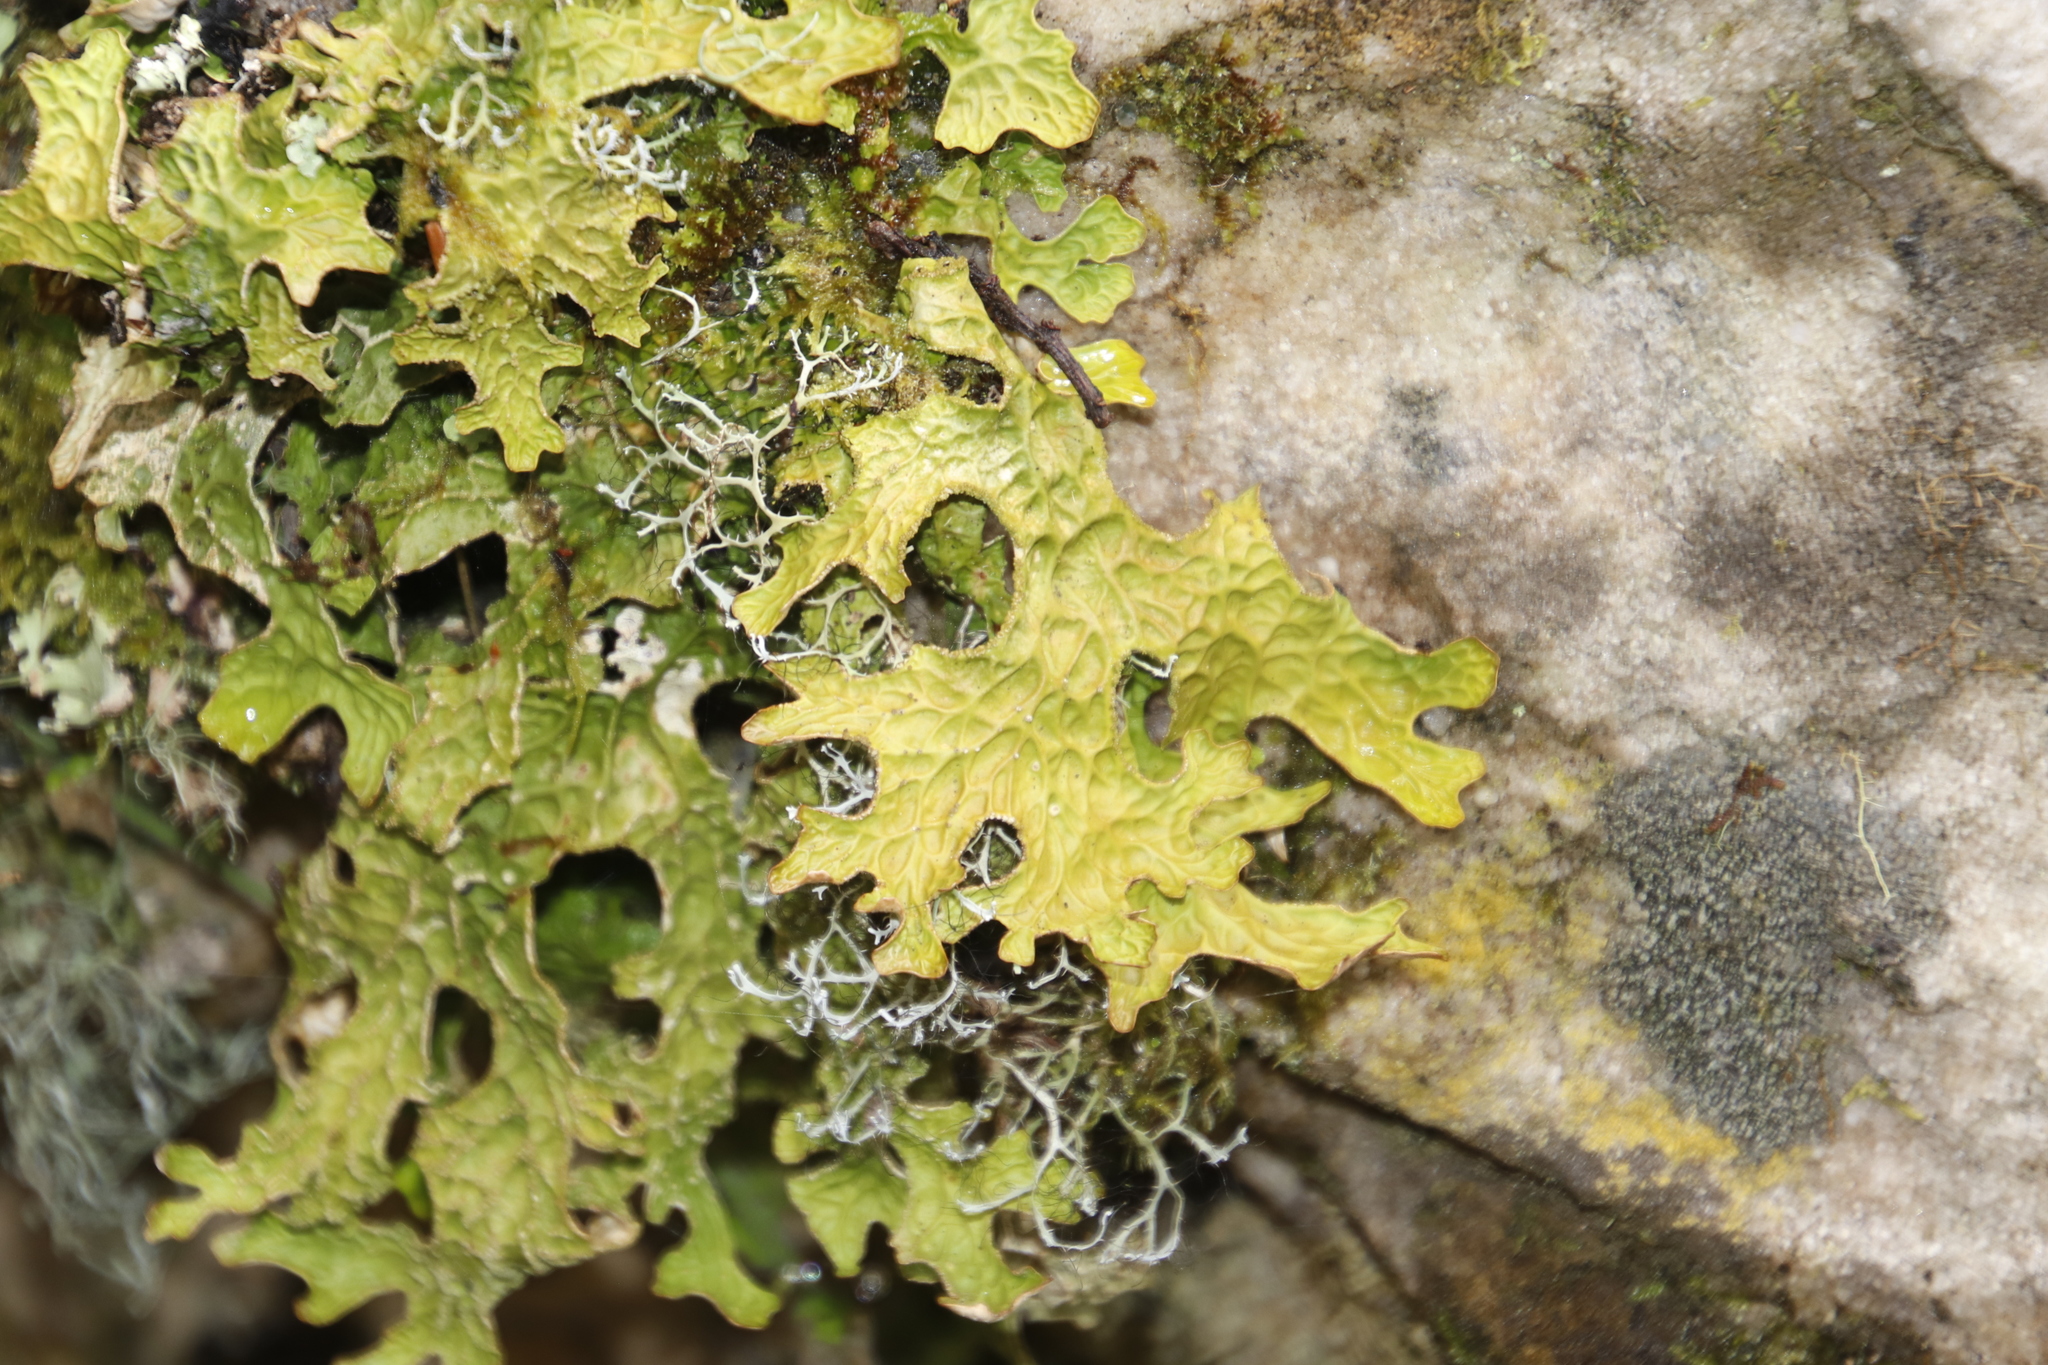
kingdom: Fungi
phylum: Ascomycota
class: Lecanoromycetes
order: Peltigerales
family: Lobariaceae
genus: Lobaria
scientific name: Lobaria pulmonaria
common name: Lungwort
